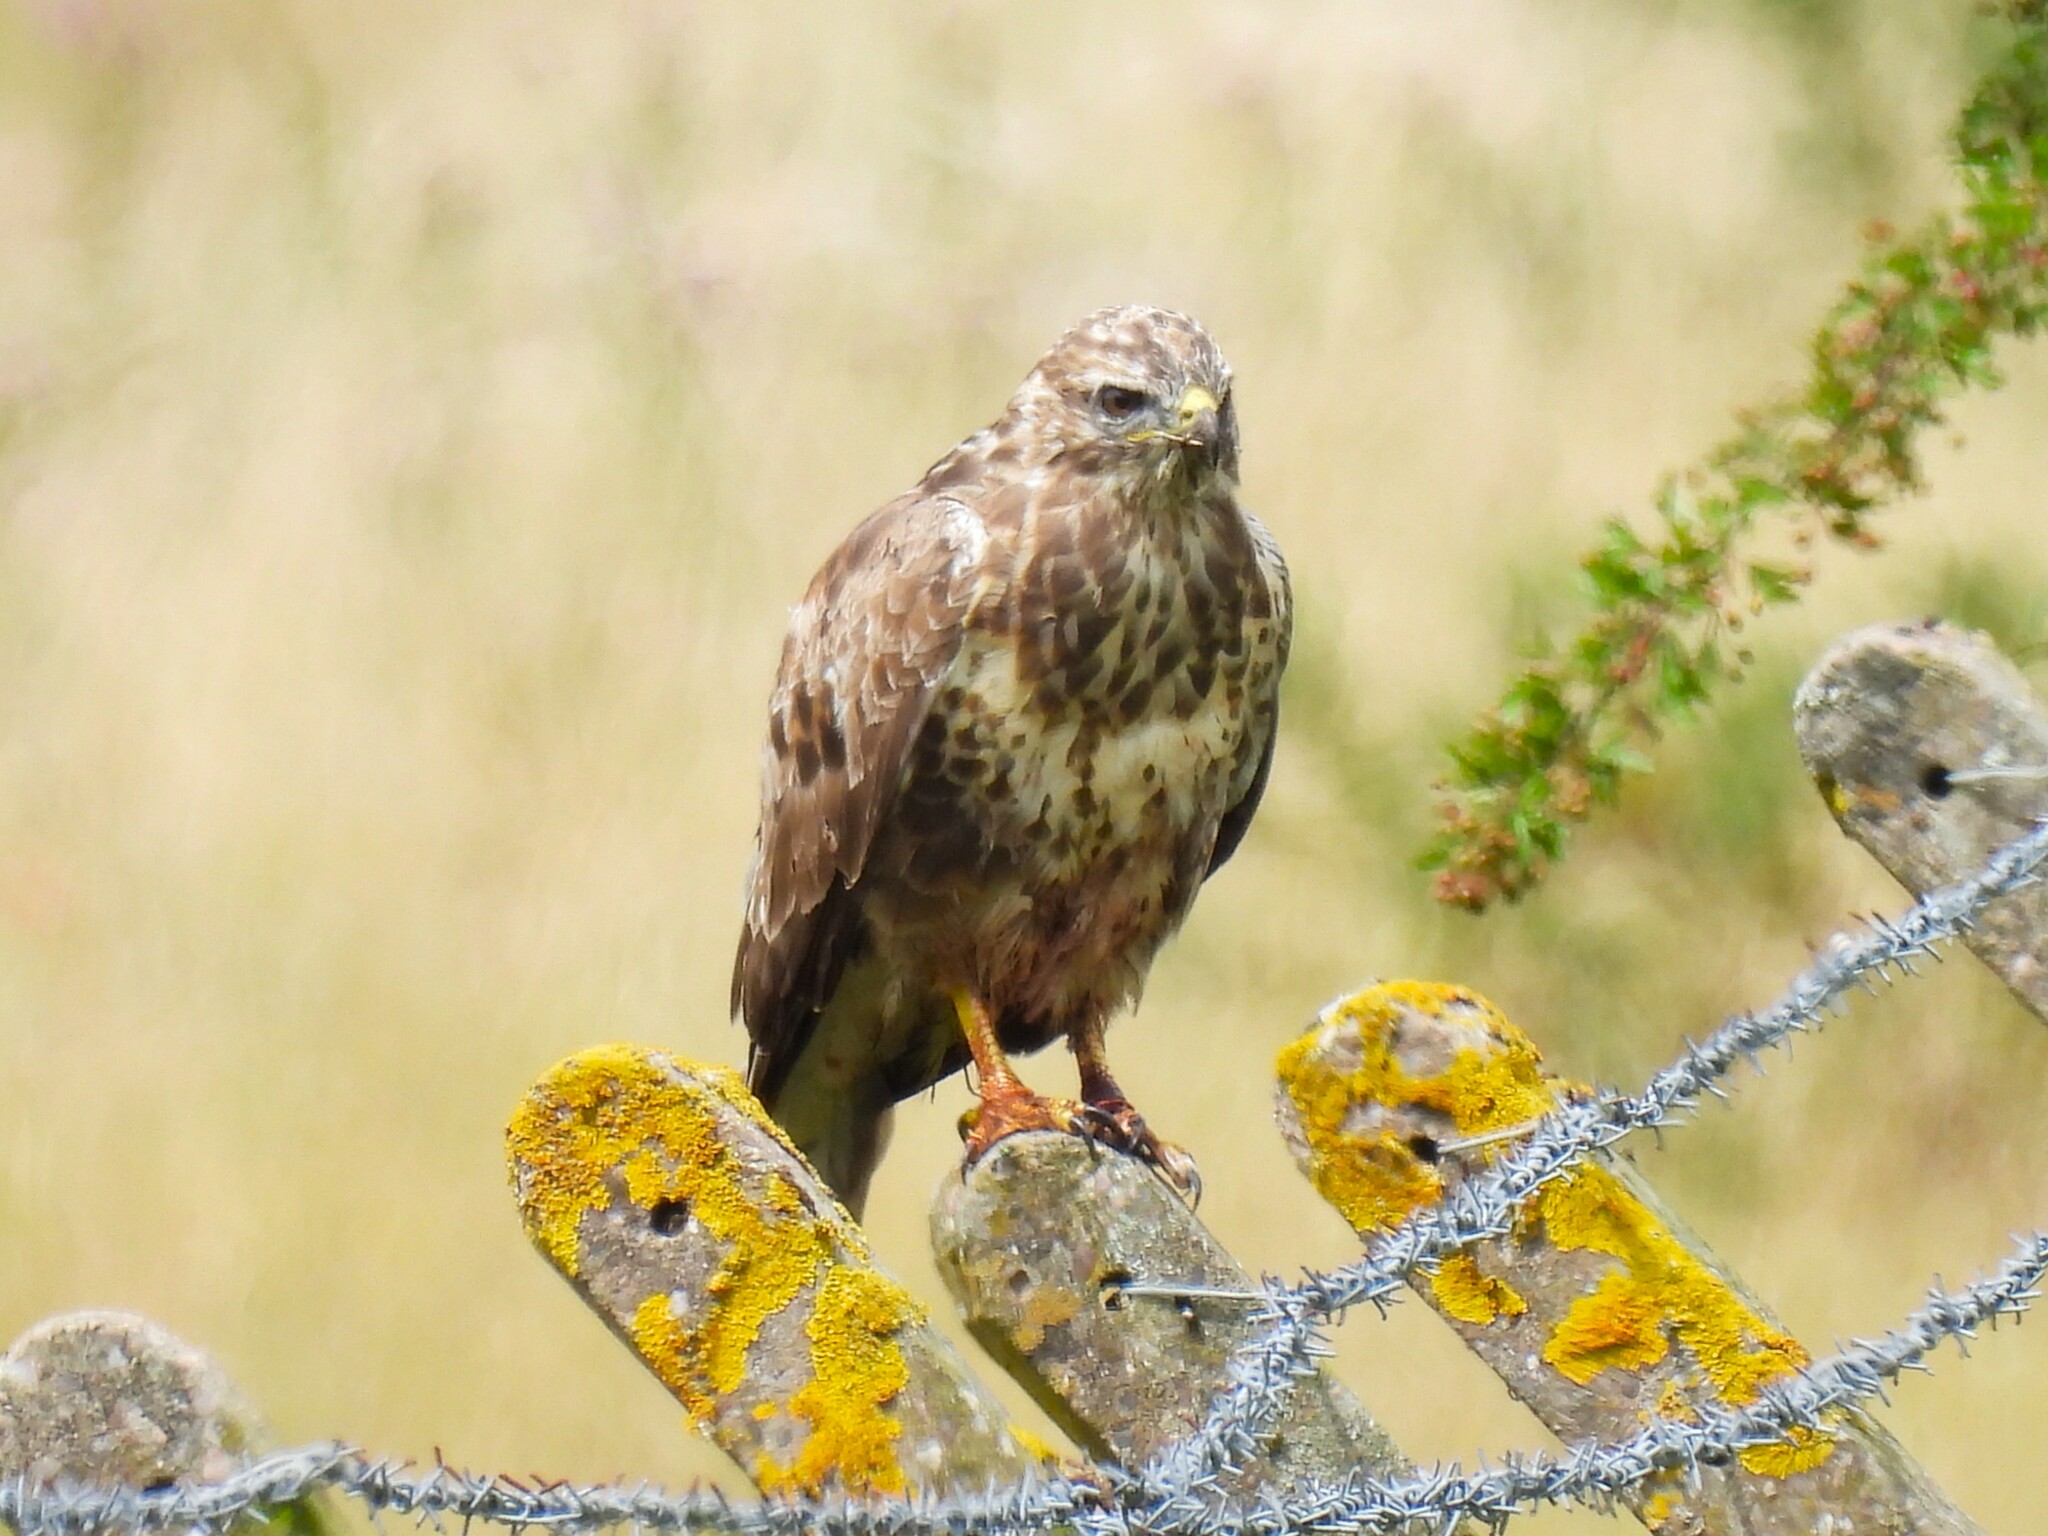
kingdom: Animalia
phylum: Chordata
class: Aves
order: Accipitriformes
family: Accipitridae
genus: Buteo
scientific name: Buteo buteo
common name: Common buzzard
